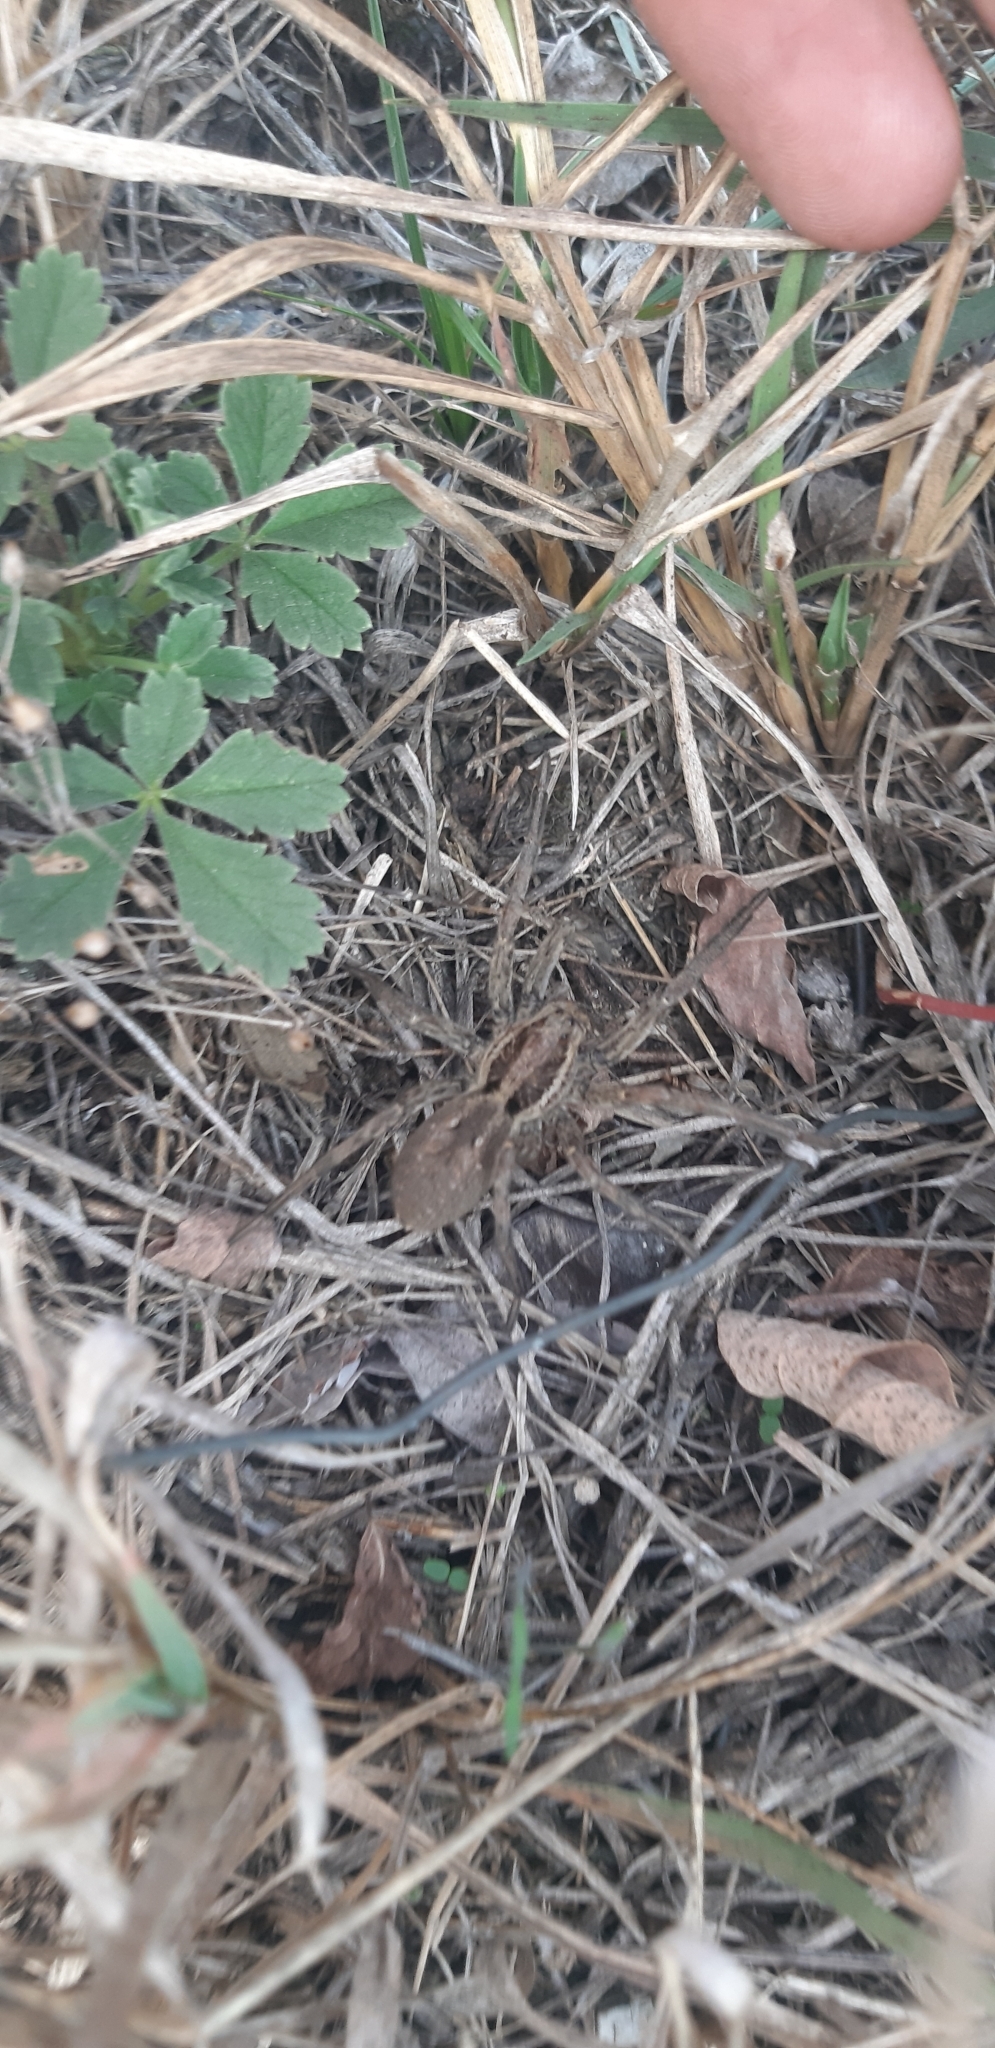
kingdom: Animalia
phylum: Arthropoda
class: Arachnida
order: Araneae
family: Lycosidae
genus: Hogna
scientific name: Hogna radiata
